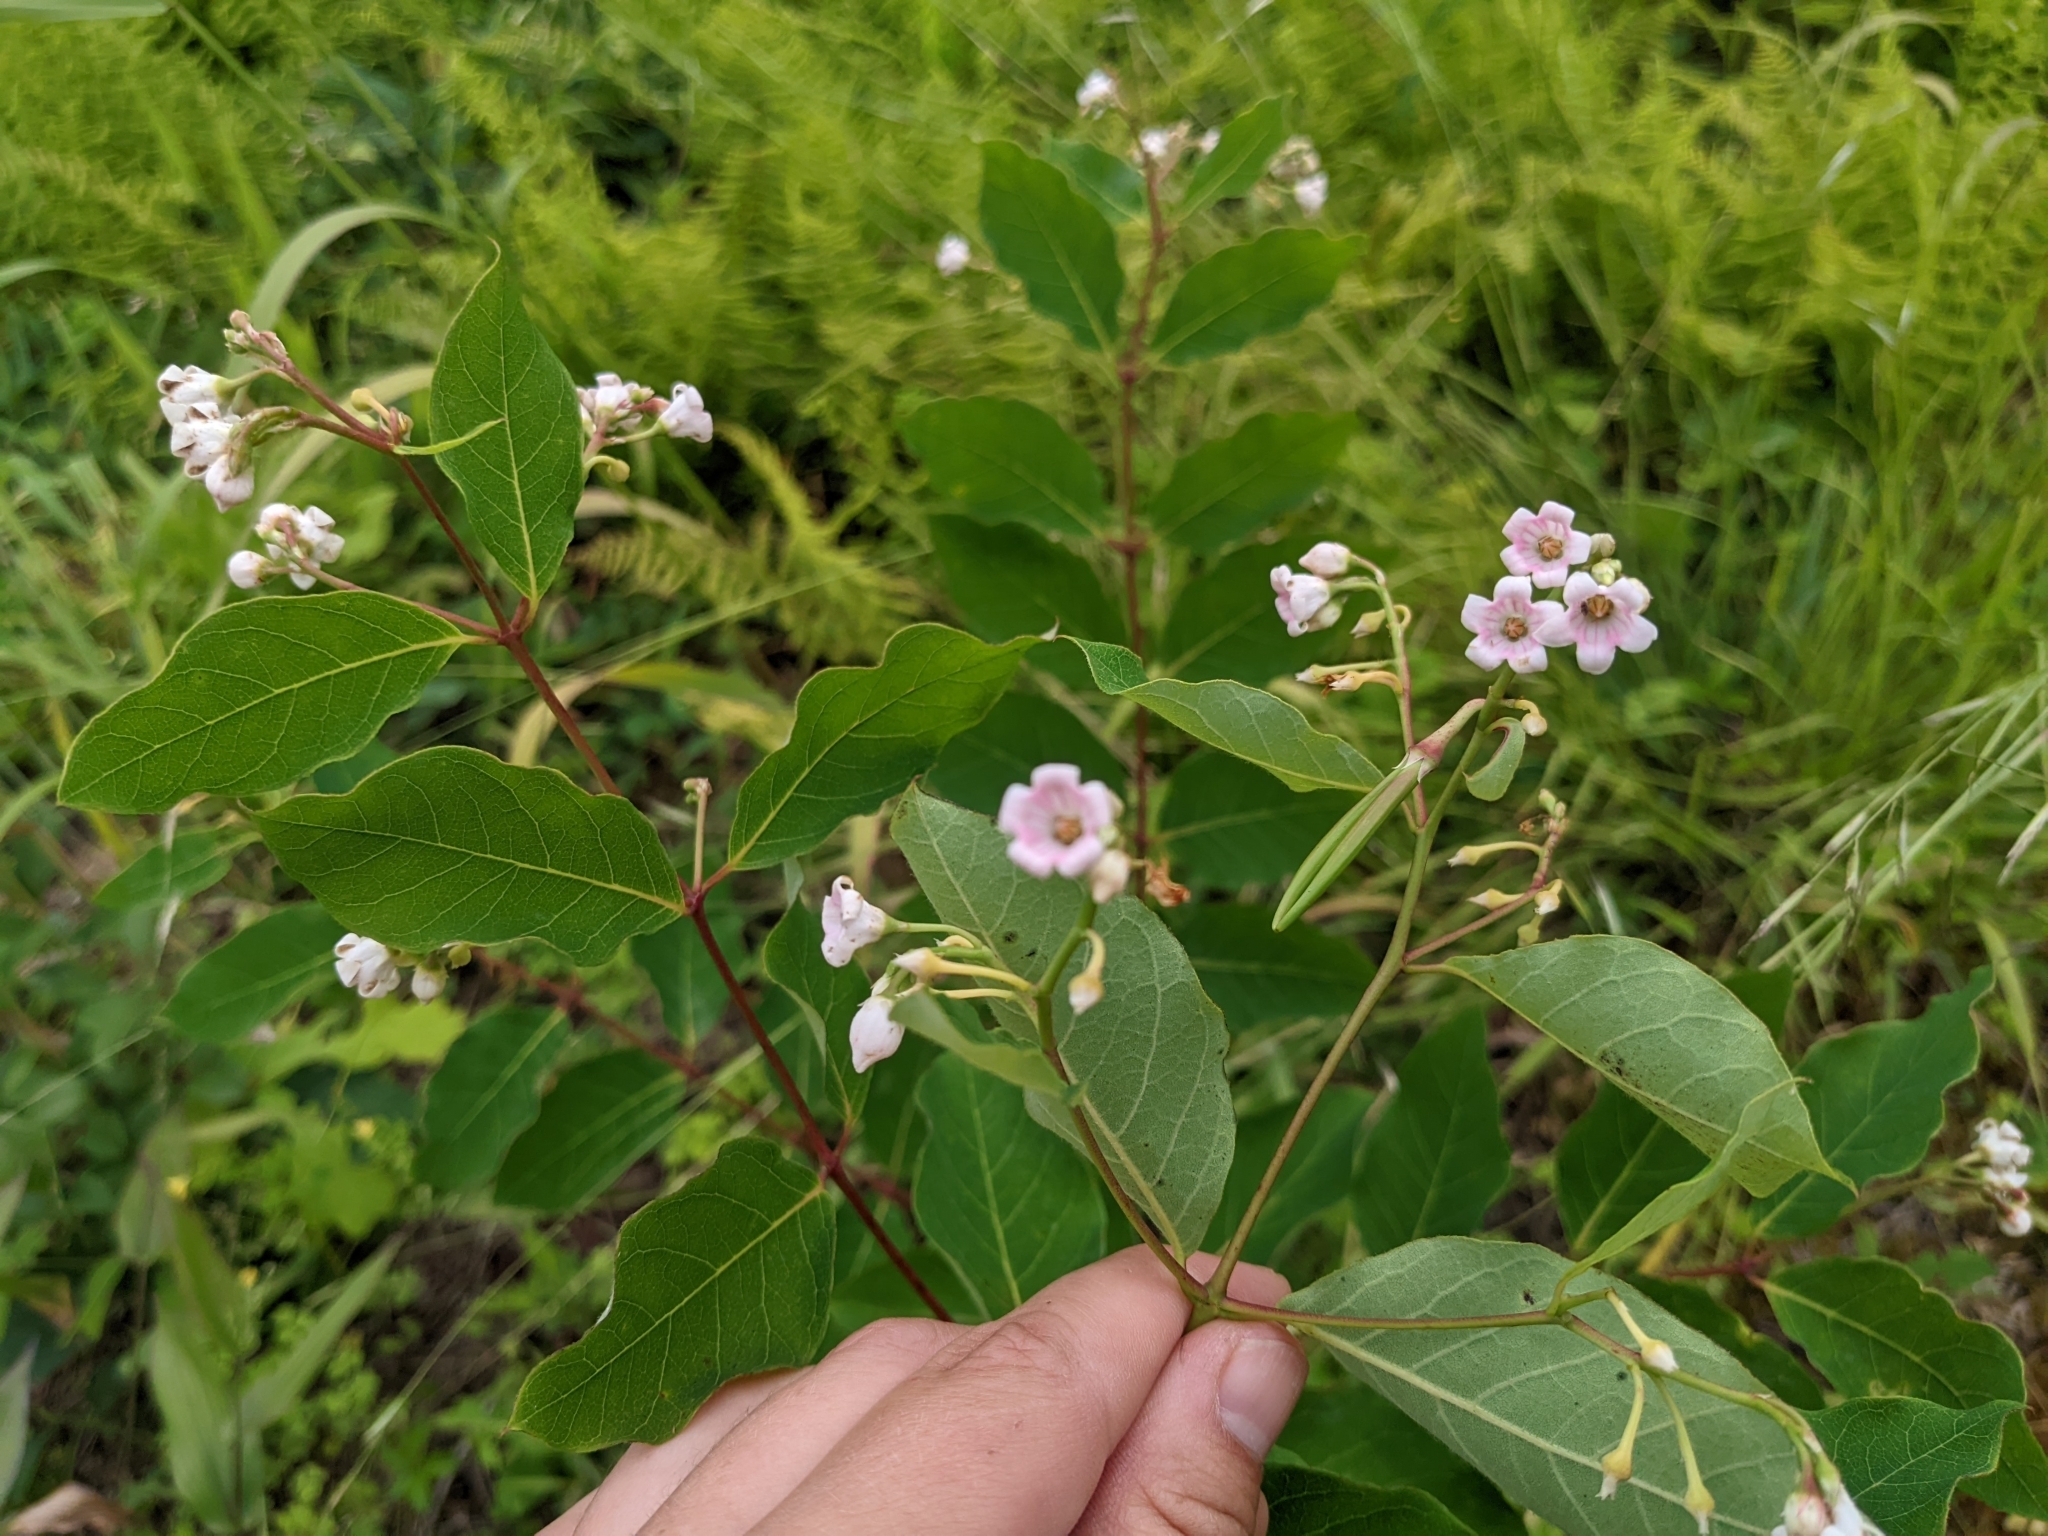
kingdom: Plantae
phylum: Tracheophyta
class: Magnoliopsida
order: Gentianales
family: Apocynaceae
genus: Apocynum
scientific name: Apocynum androsaemifolium
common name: Spreading dogbane
